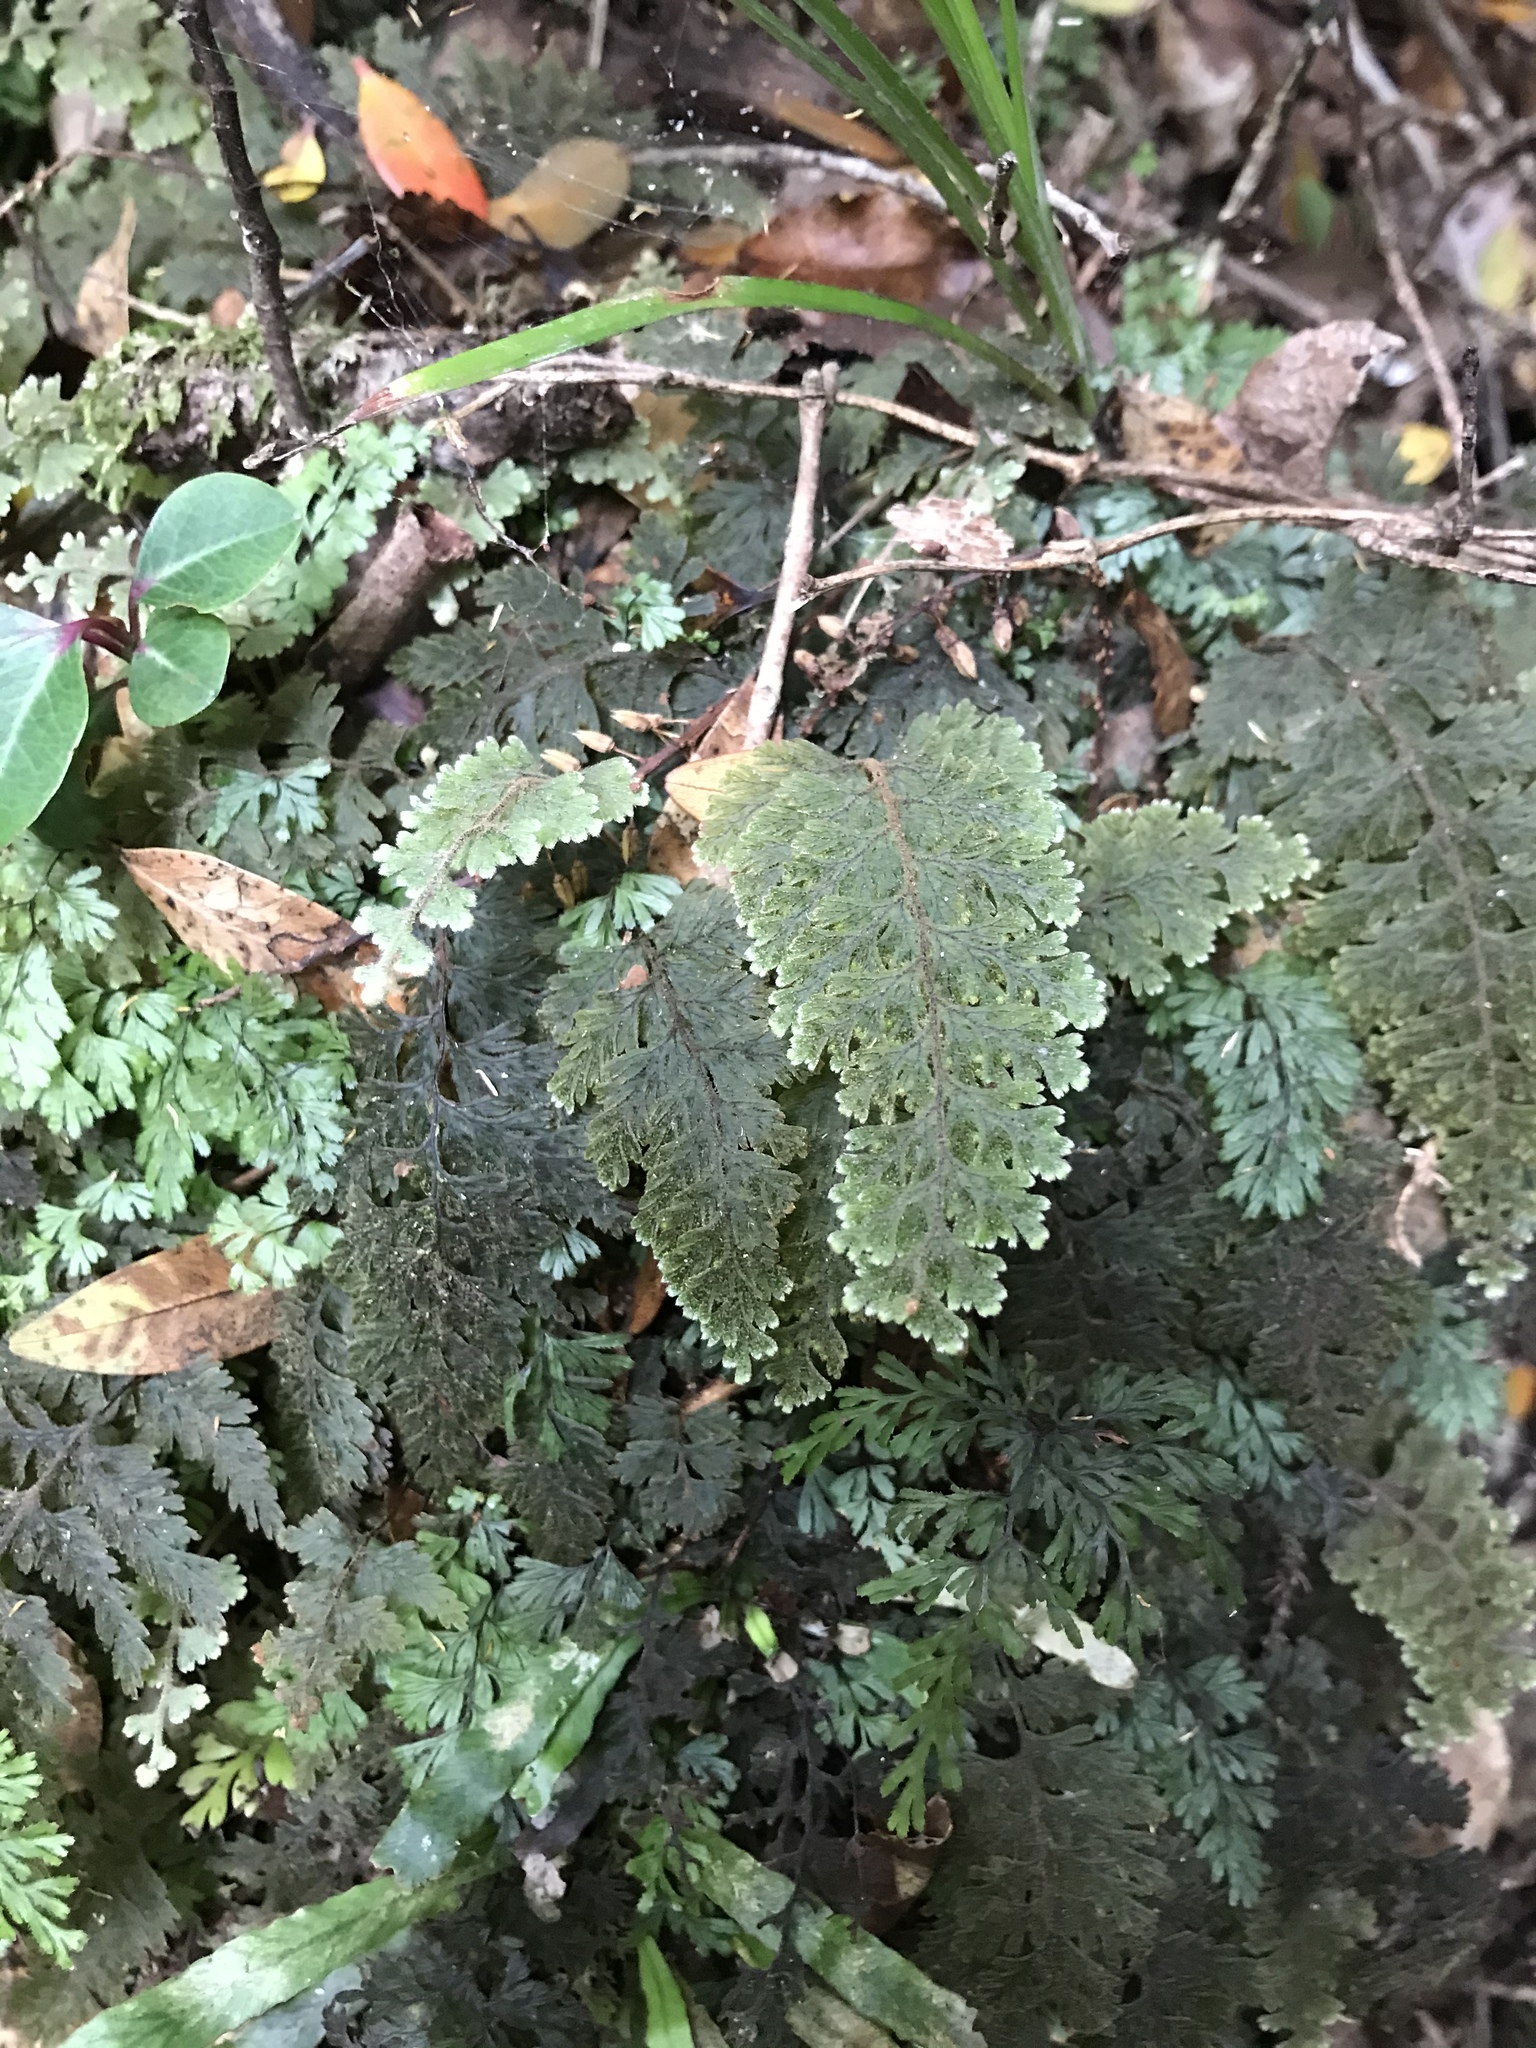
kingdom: Plantae
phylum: Tracheophyta
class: Polypodiopsida
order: Hymenophyllales
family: Hymenophyllaceae
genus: Hymenophyllum
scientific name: Hymenophyllum frankliniae
